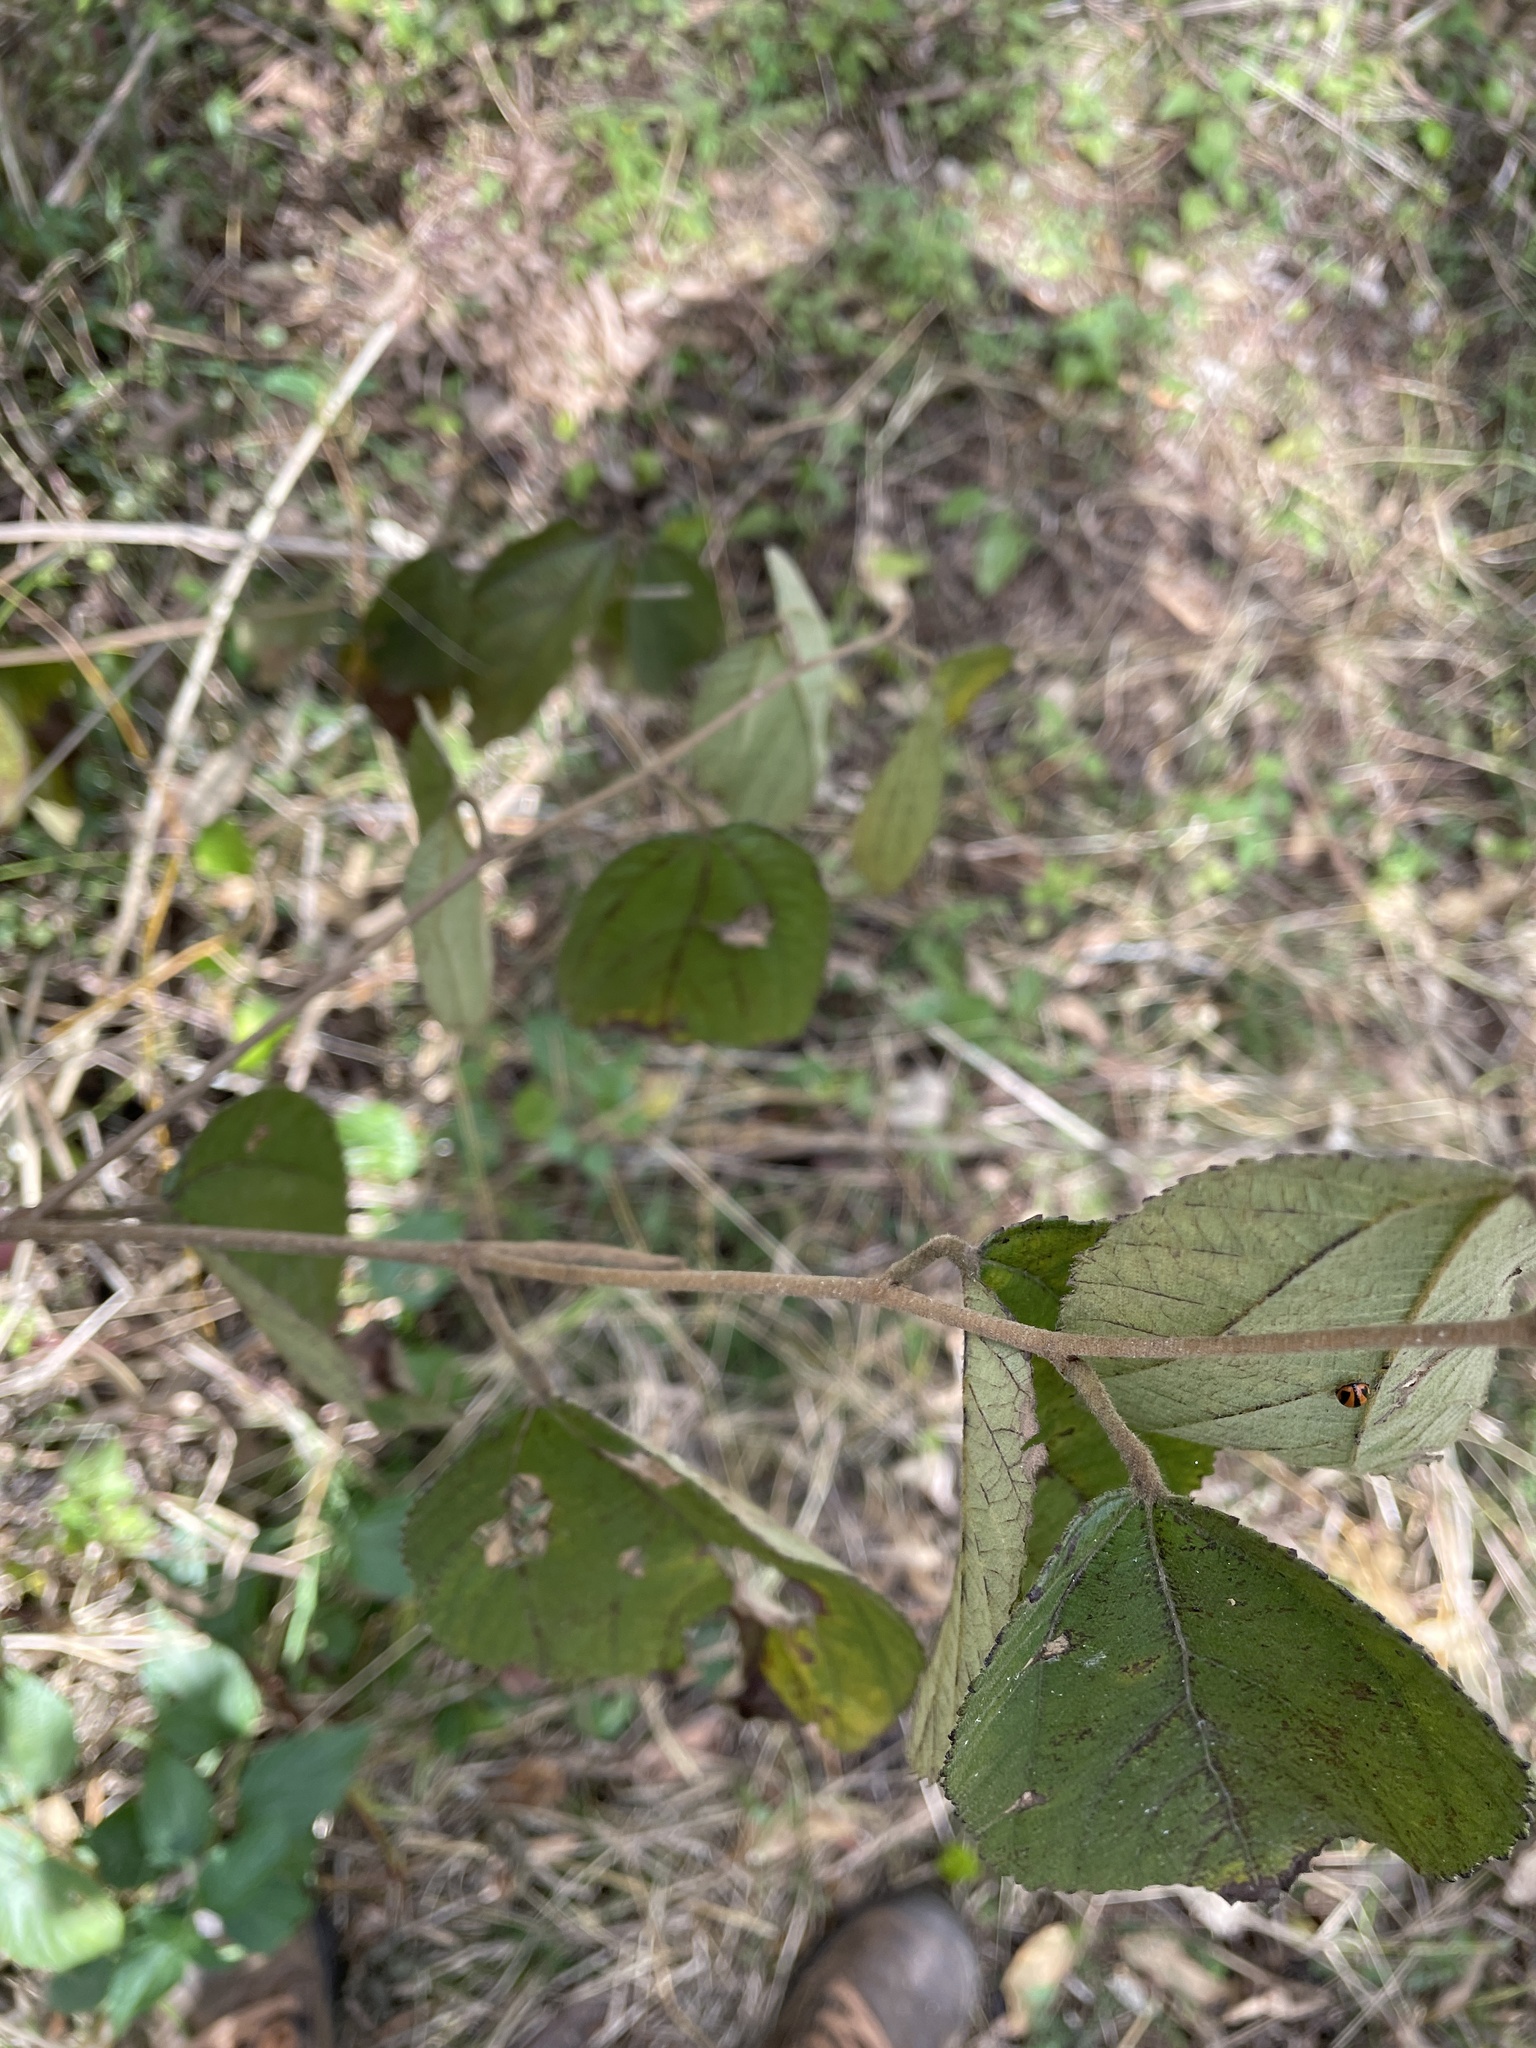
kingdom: Plantae
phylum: Tracheophyta
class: Magnoliopsida
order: Malvales
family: Malvaceae
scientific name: Malvaceae
